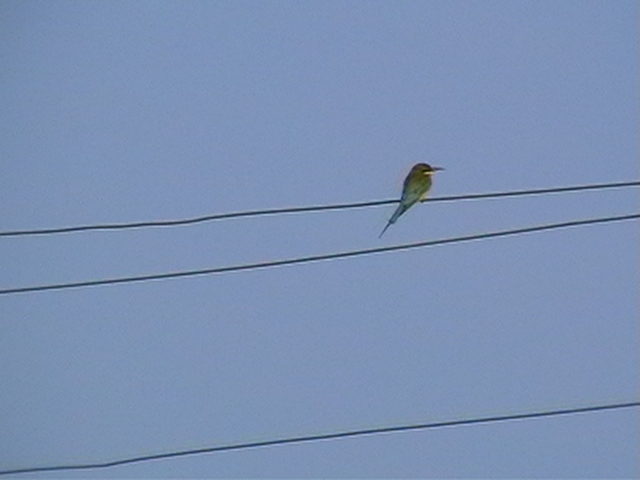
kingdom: Animalia
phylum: Chordata
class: Aves
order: Coraciiformes
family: Meropidae
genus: Merops
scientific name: Merops philippinus
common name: Blue-tailed bee-eater
